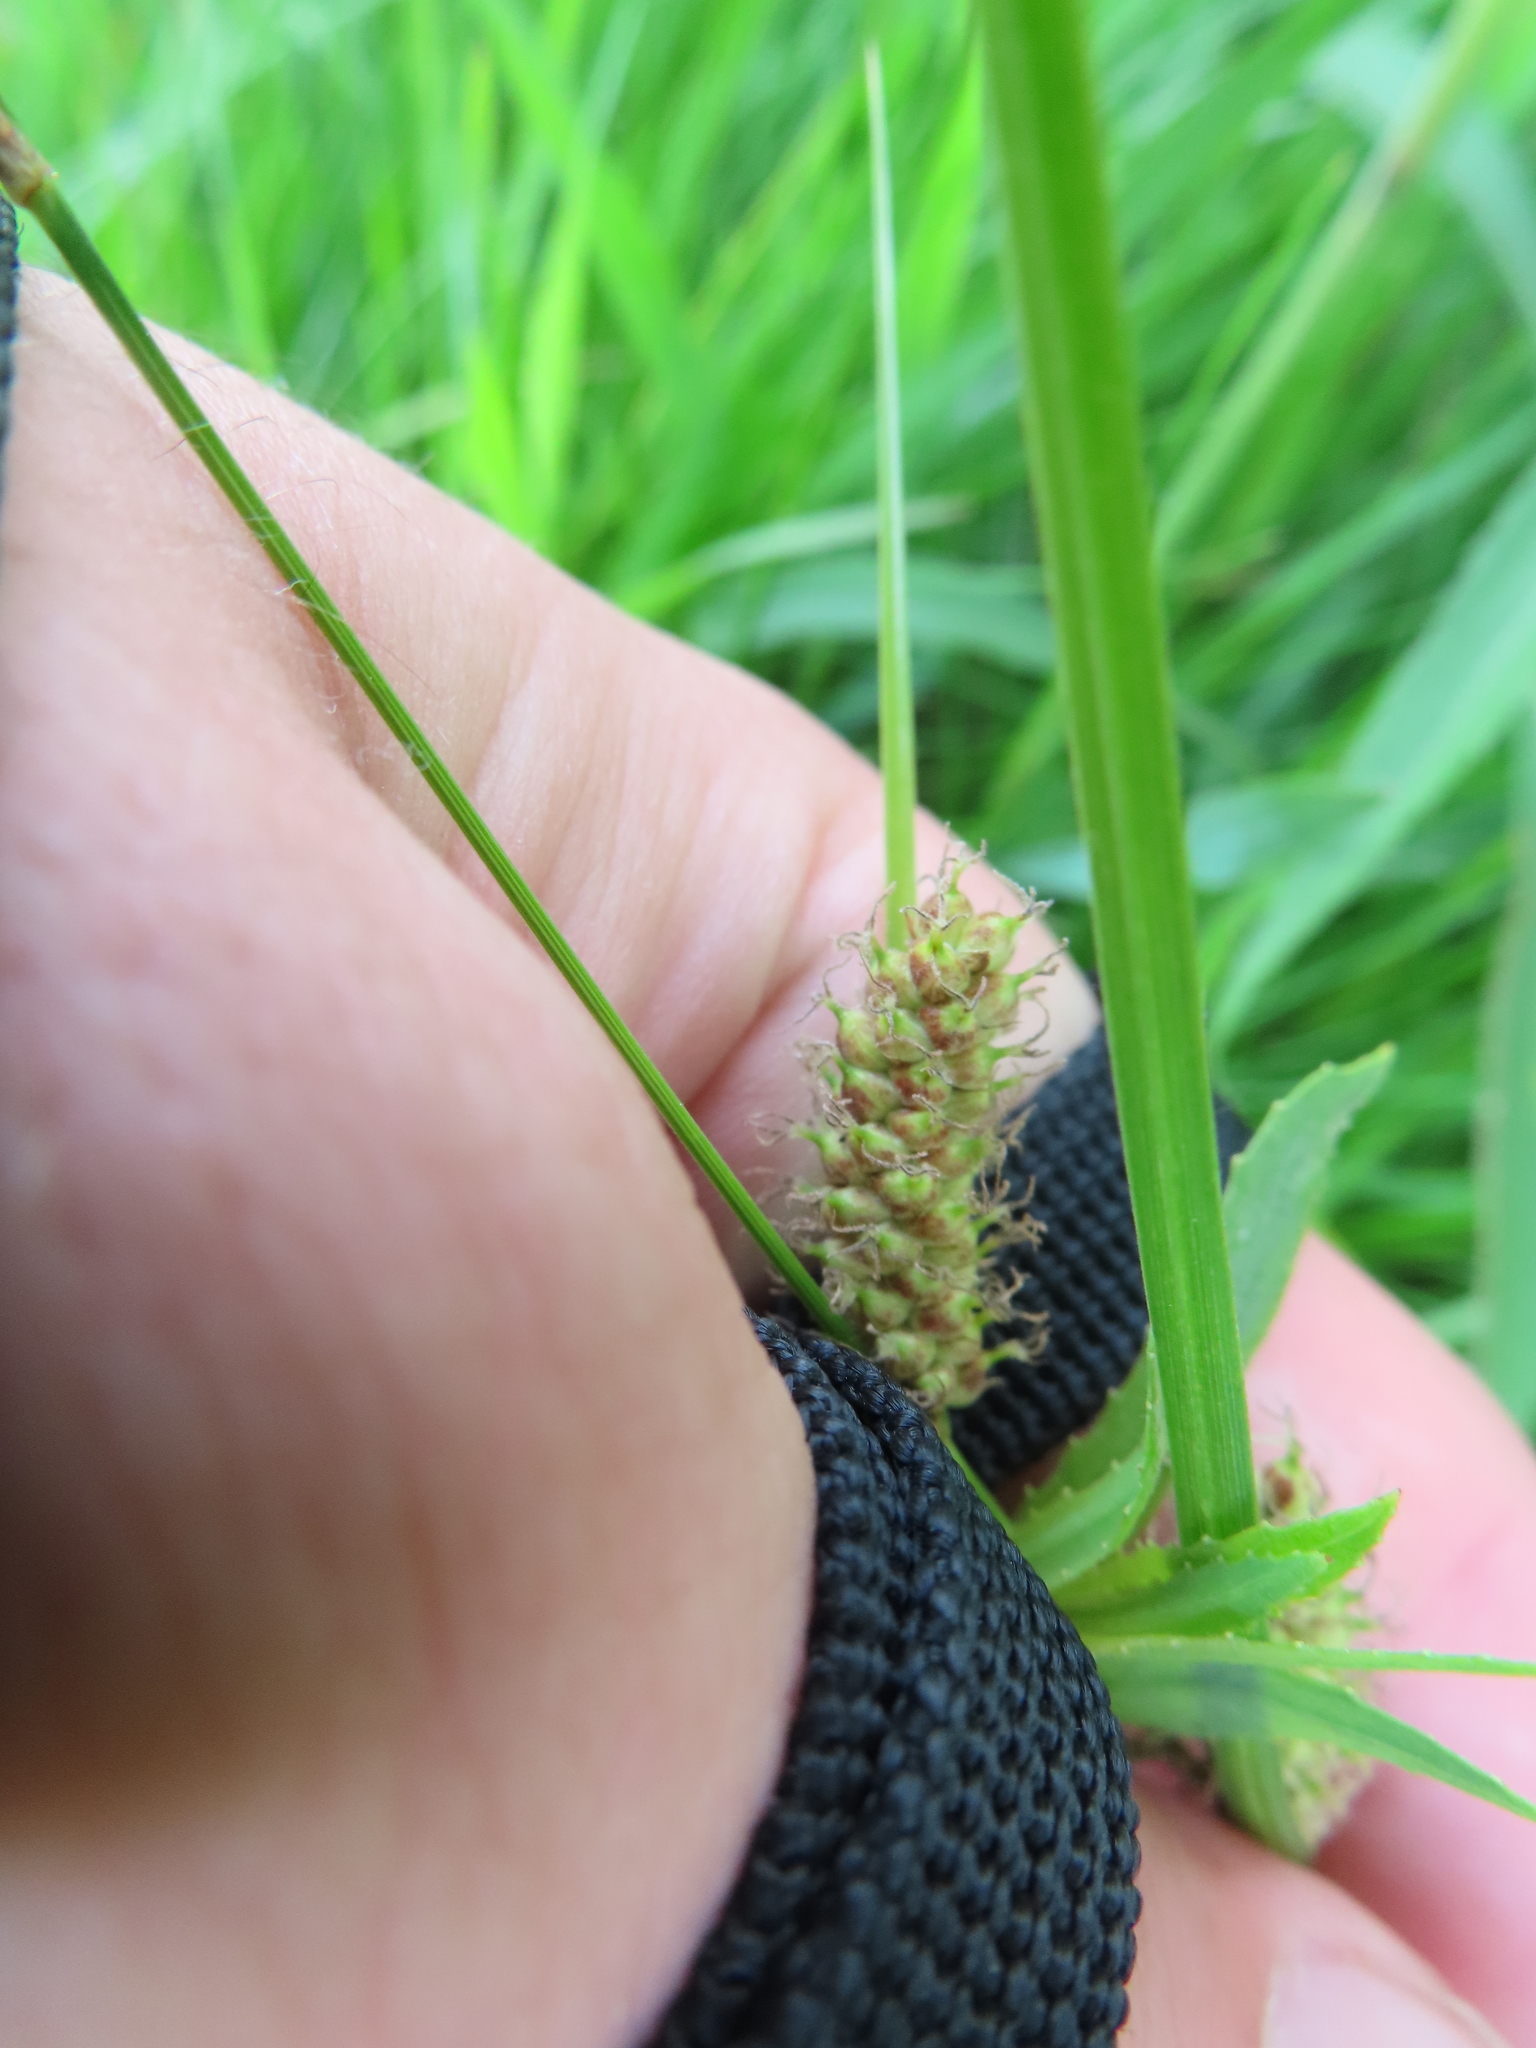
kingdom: Plantae
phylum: Tracheophyta
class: Liliopsida
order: Poales
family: Cyperaceae
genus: Carex
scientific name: Carex pellita
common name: Woolly sedge
